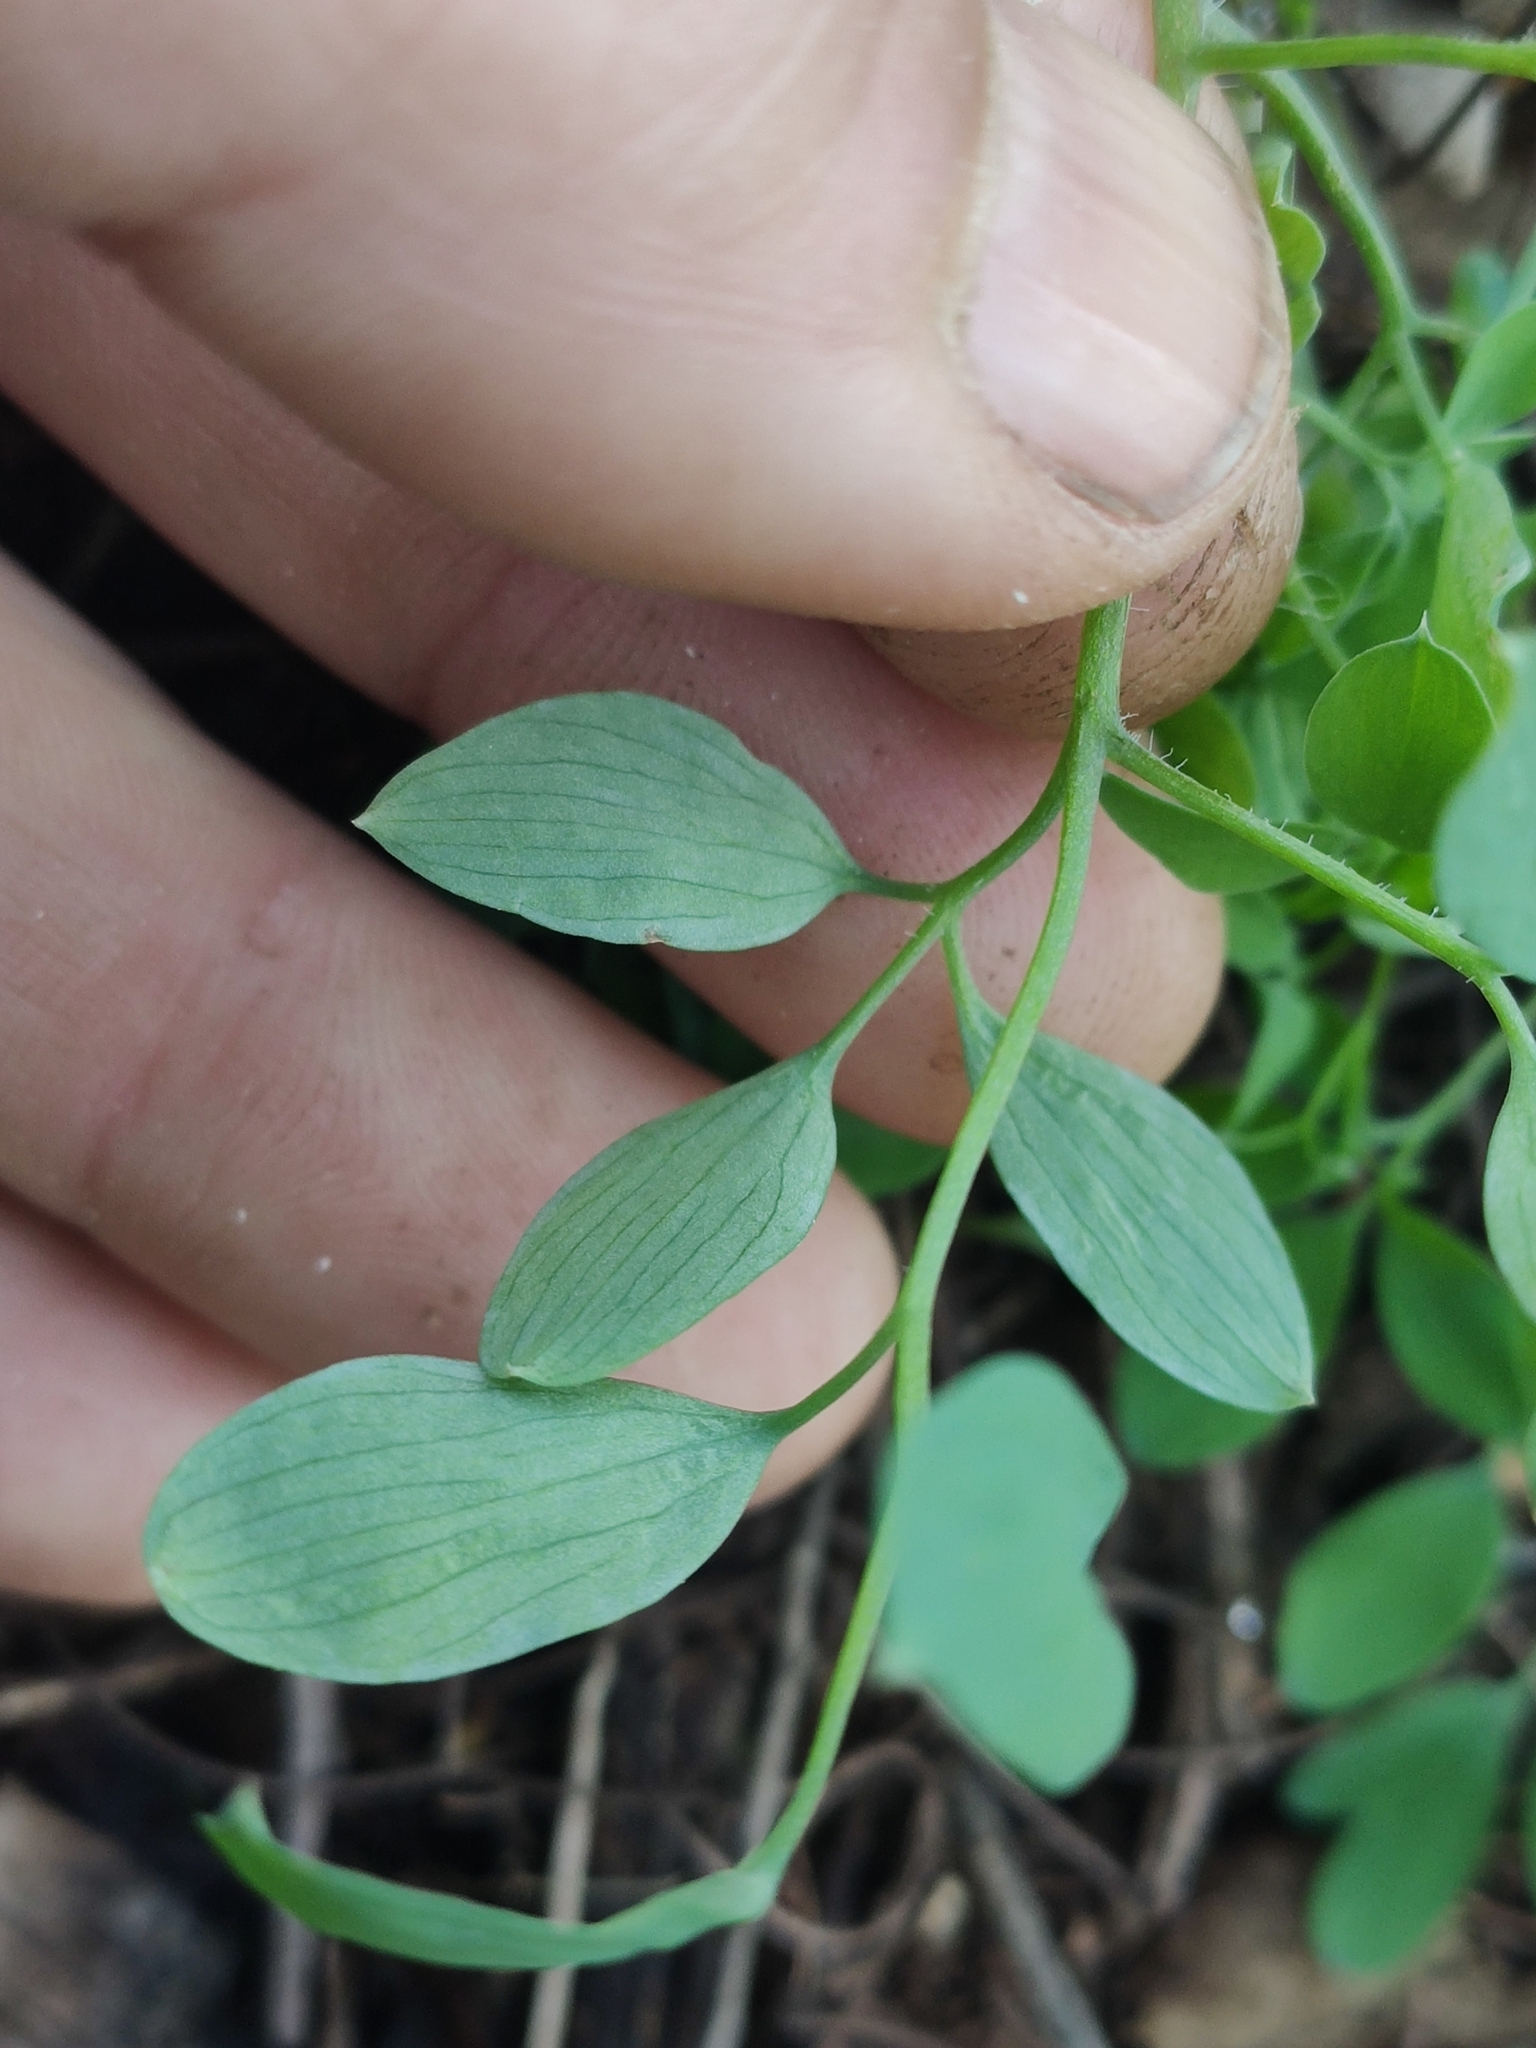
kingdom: Plantae
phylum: Tracheophyta
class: Magnoliopsida
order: Ranunculales
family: Papaveraceae
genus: Ceratocapnos
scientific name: Ceratocapnos claviculata
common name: Climbing corydalis
